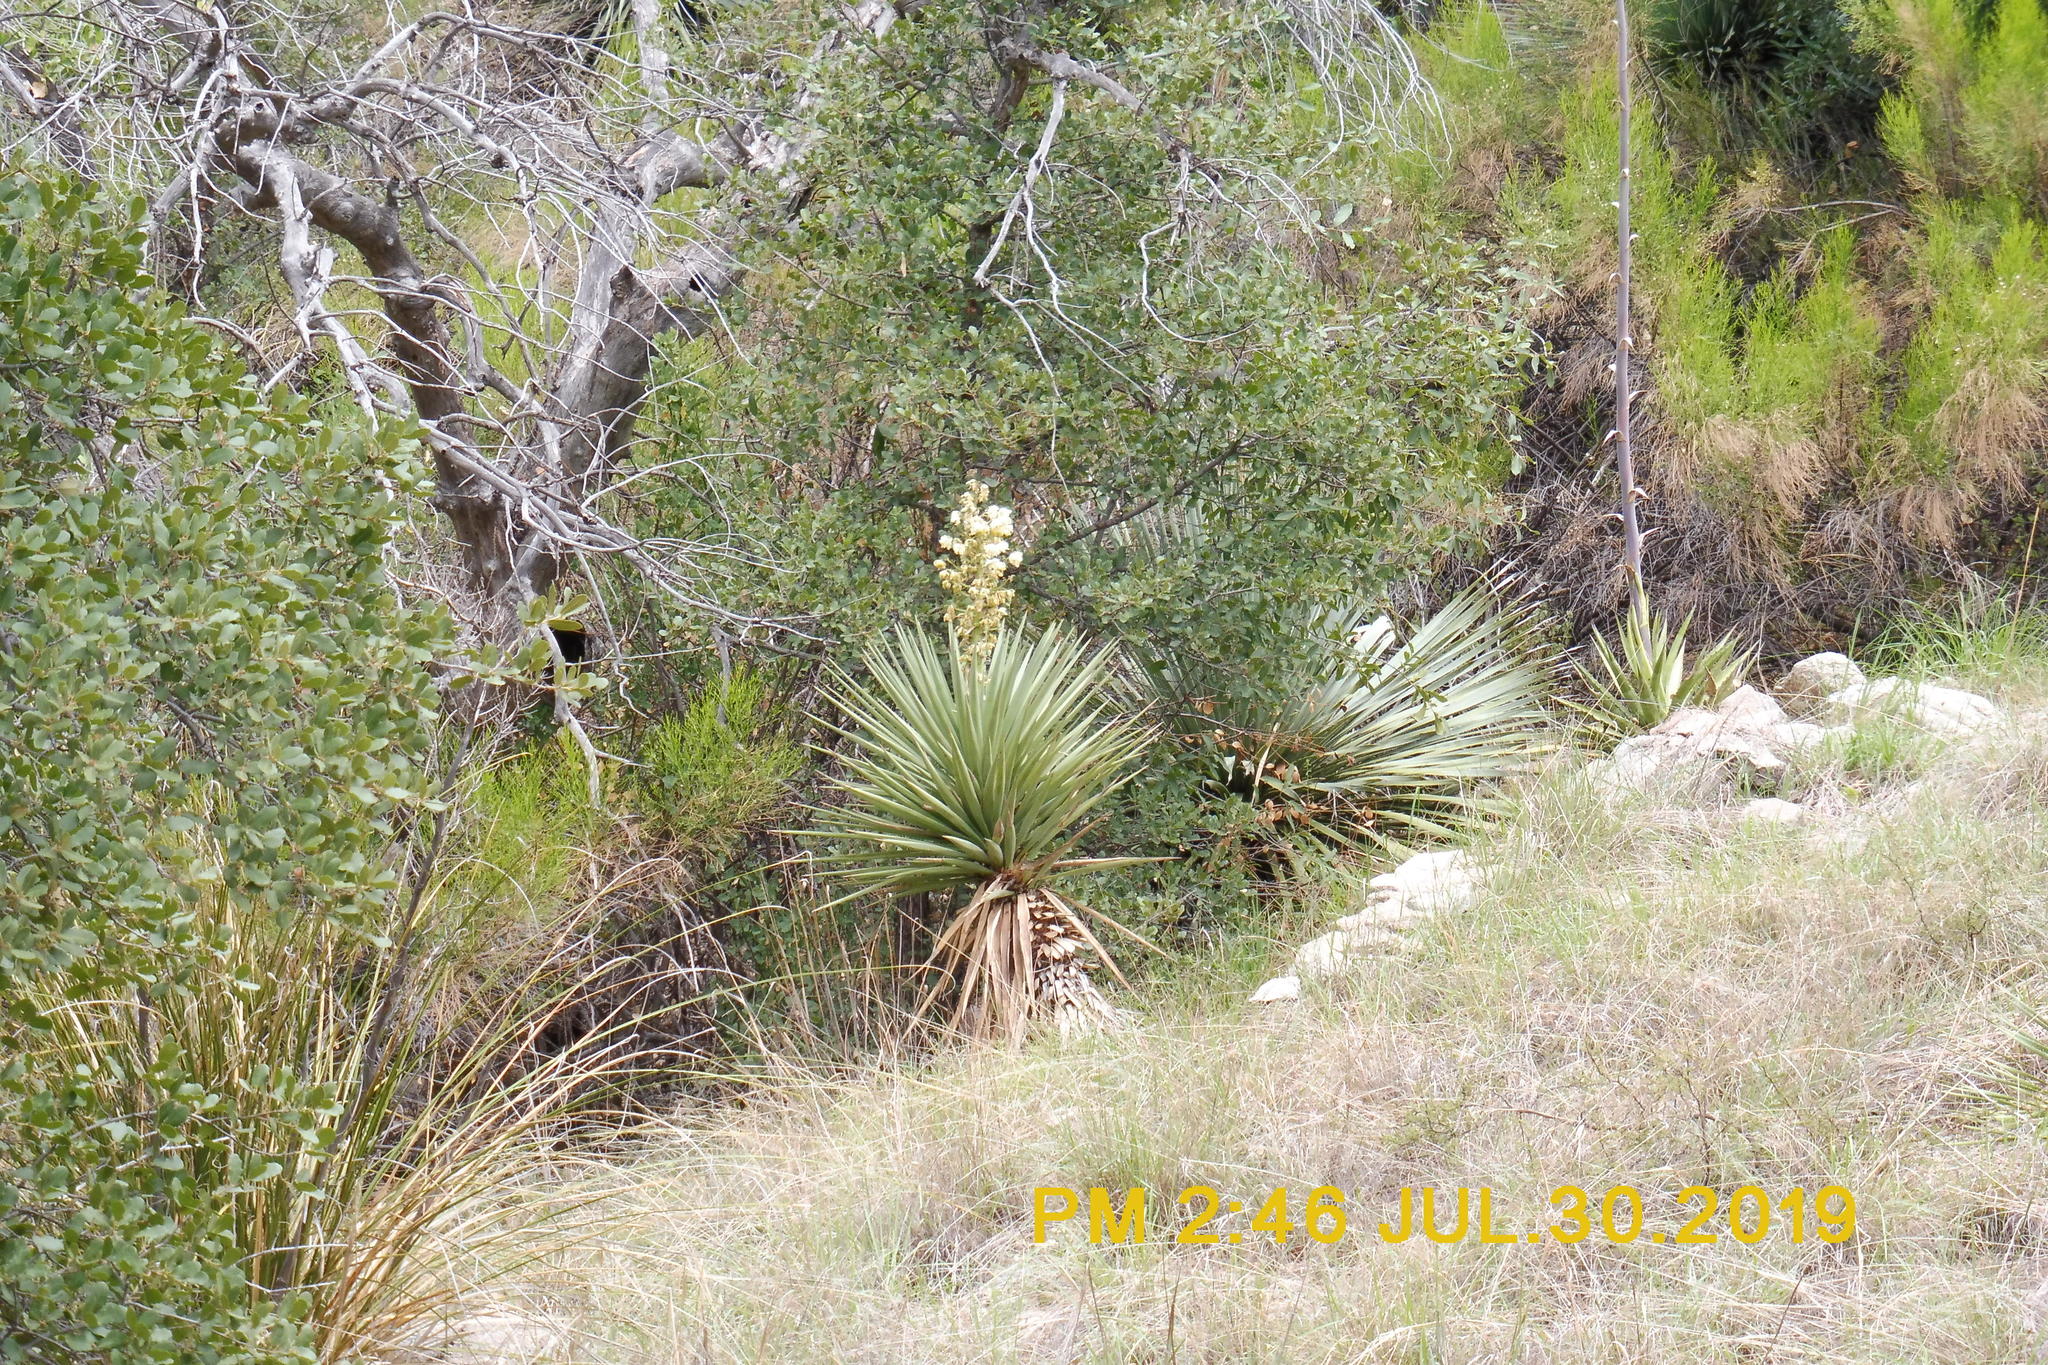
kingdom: Plantae
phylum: Tracheophyta
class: Liliopsida
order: Asparagales
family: Asparagaceae
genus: Yucca
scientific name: Yucca madrensis
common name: Hoary yucca
